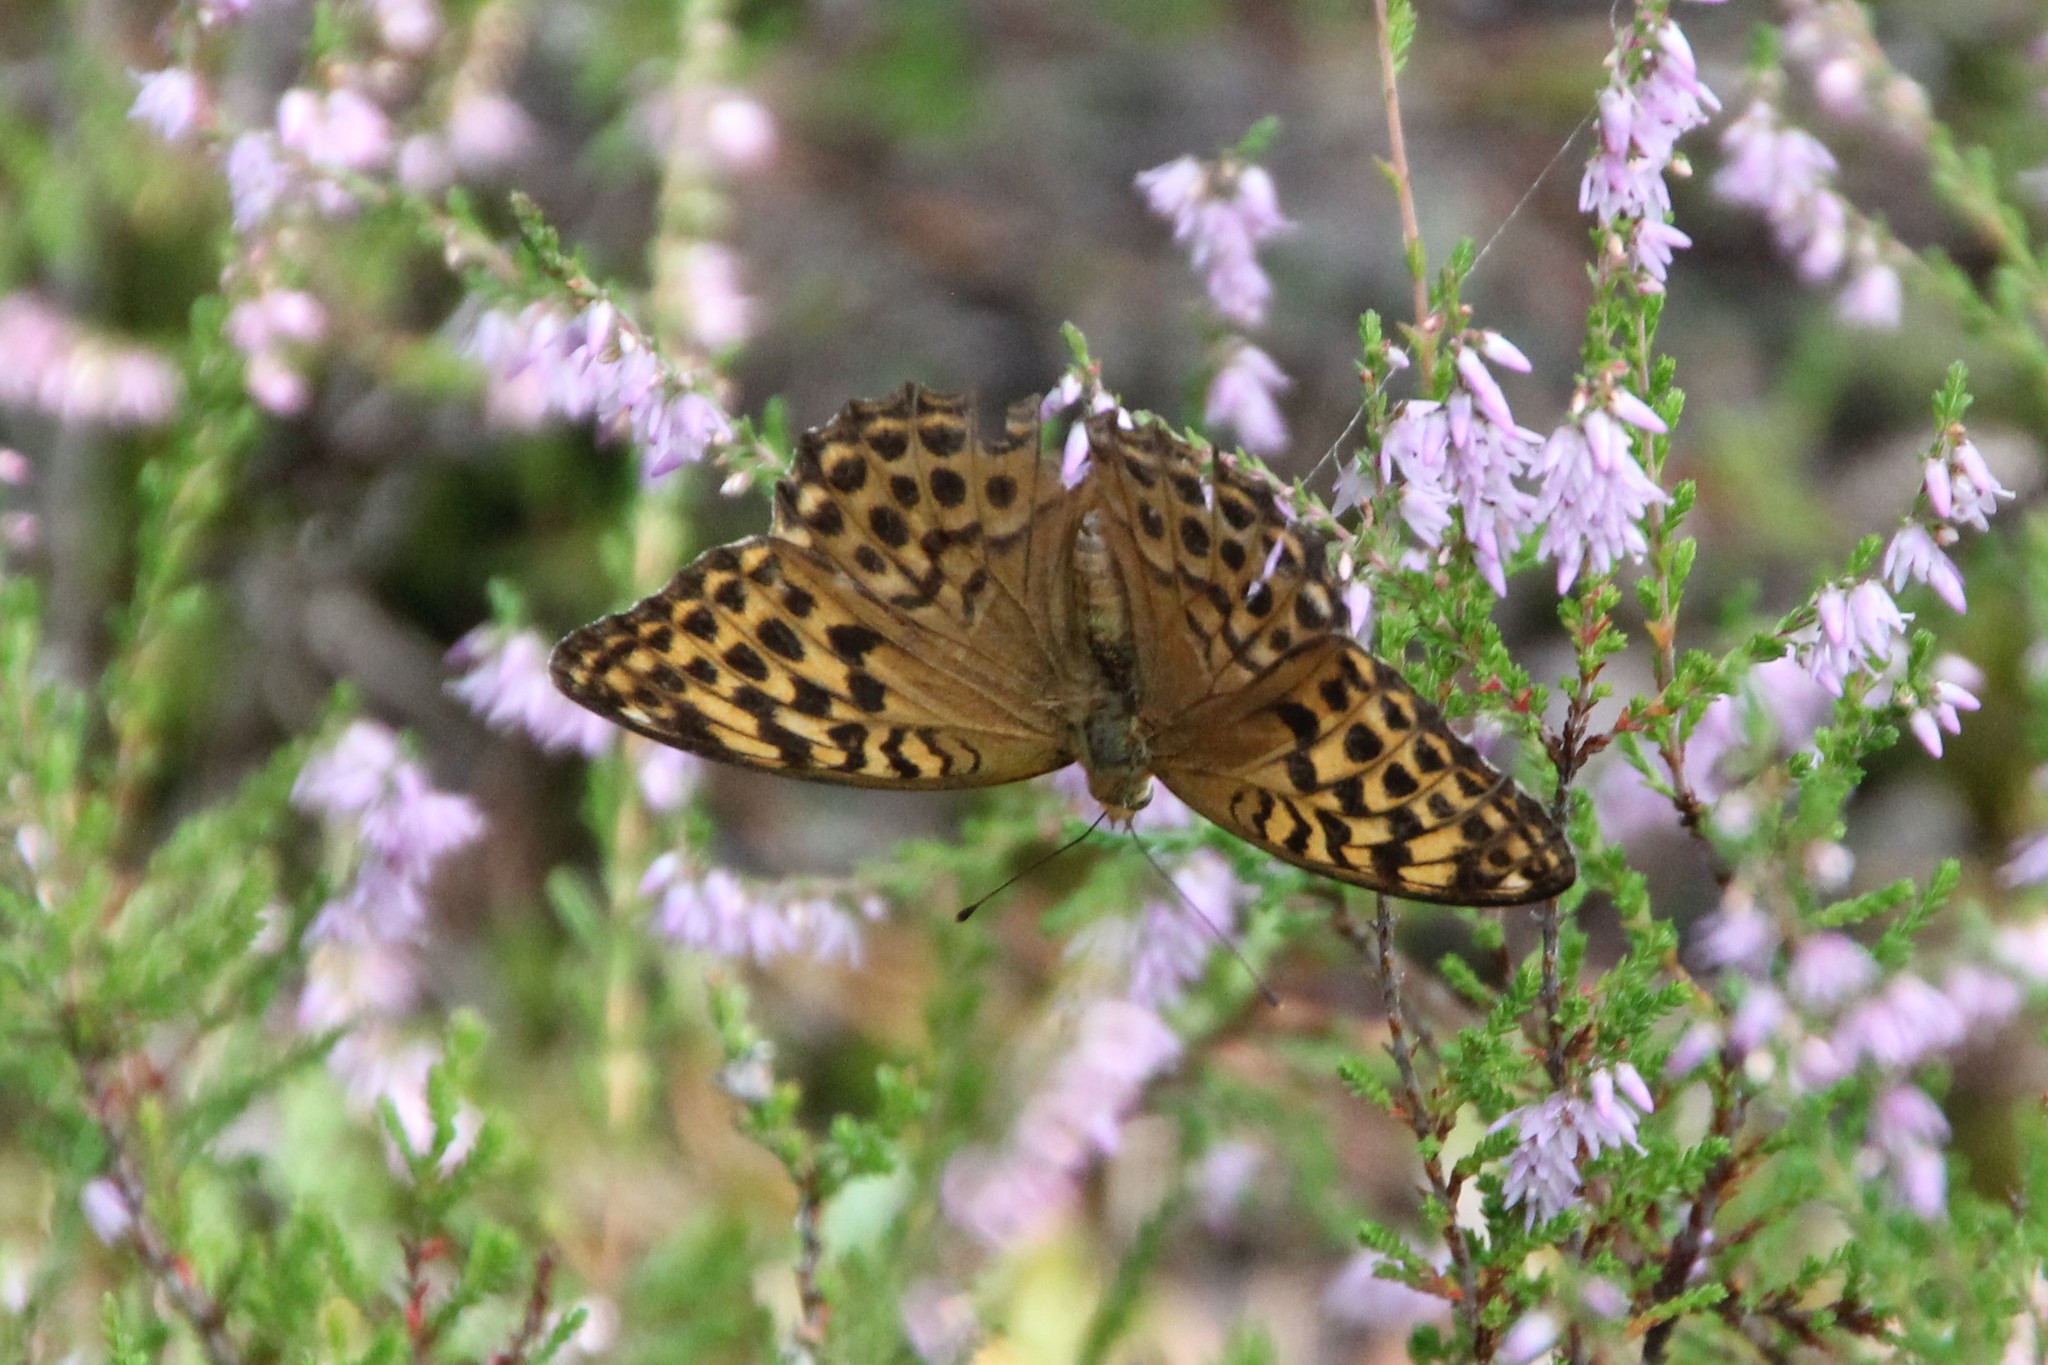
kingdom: Animalia
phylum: Arthropoda
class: Insecta
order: Lepidoptera
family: Nymphalidae
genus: Argynnis
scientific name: Argynnis paphia
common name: Silver-washed fritillary
